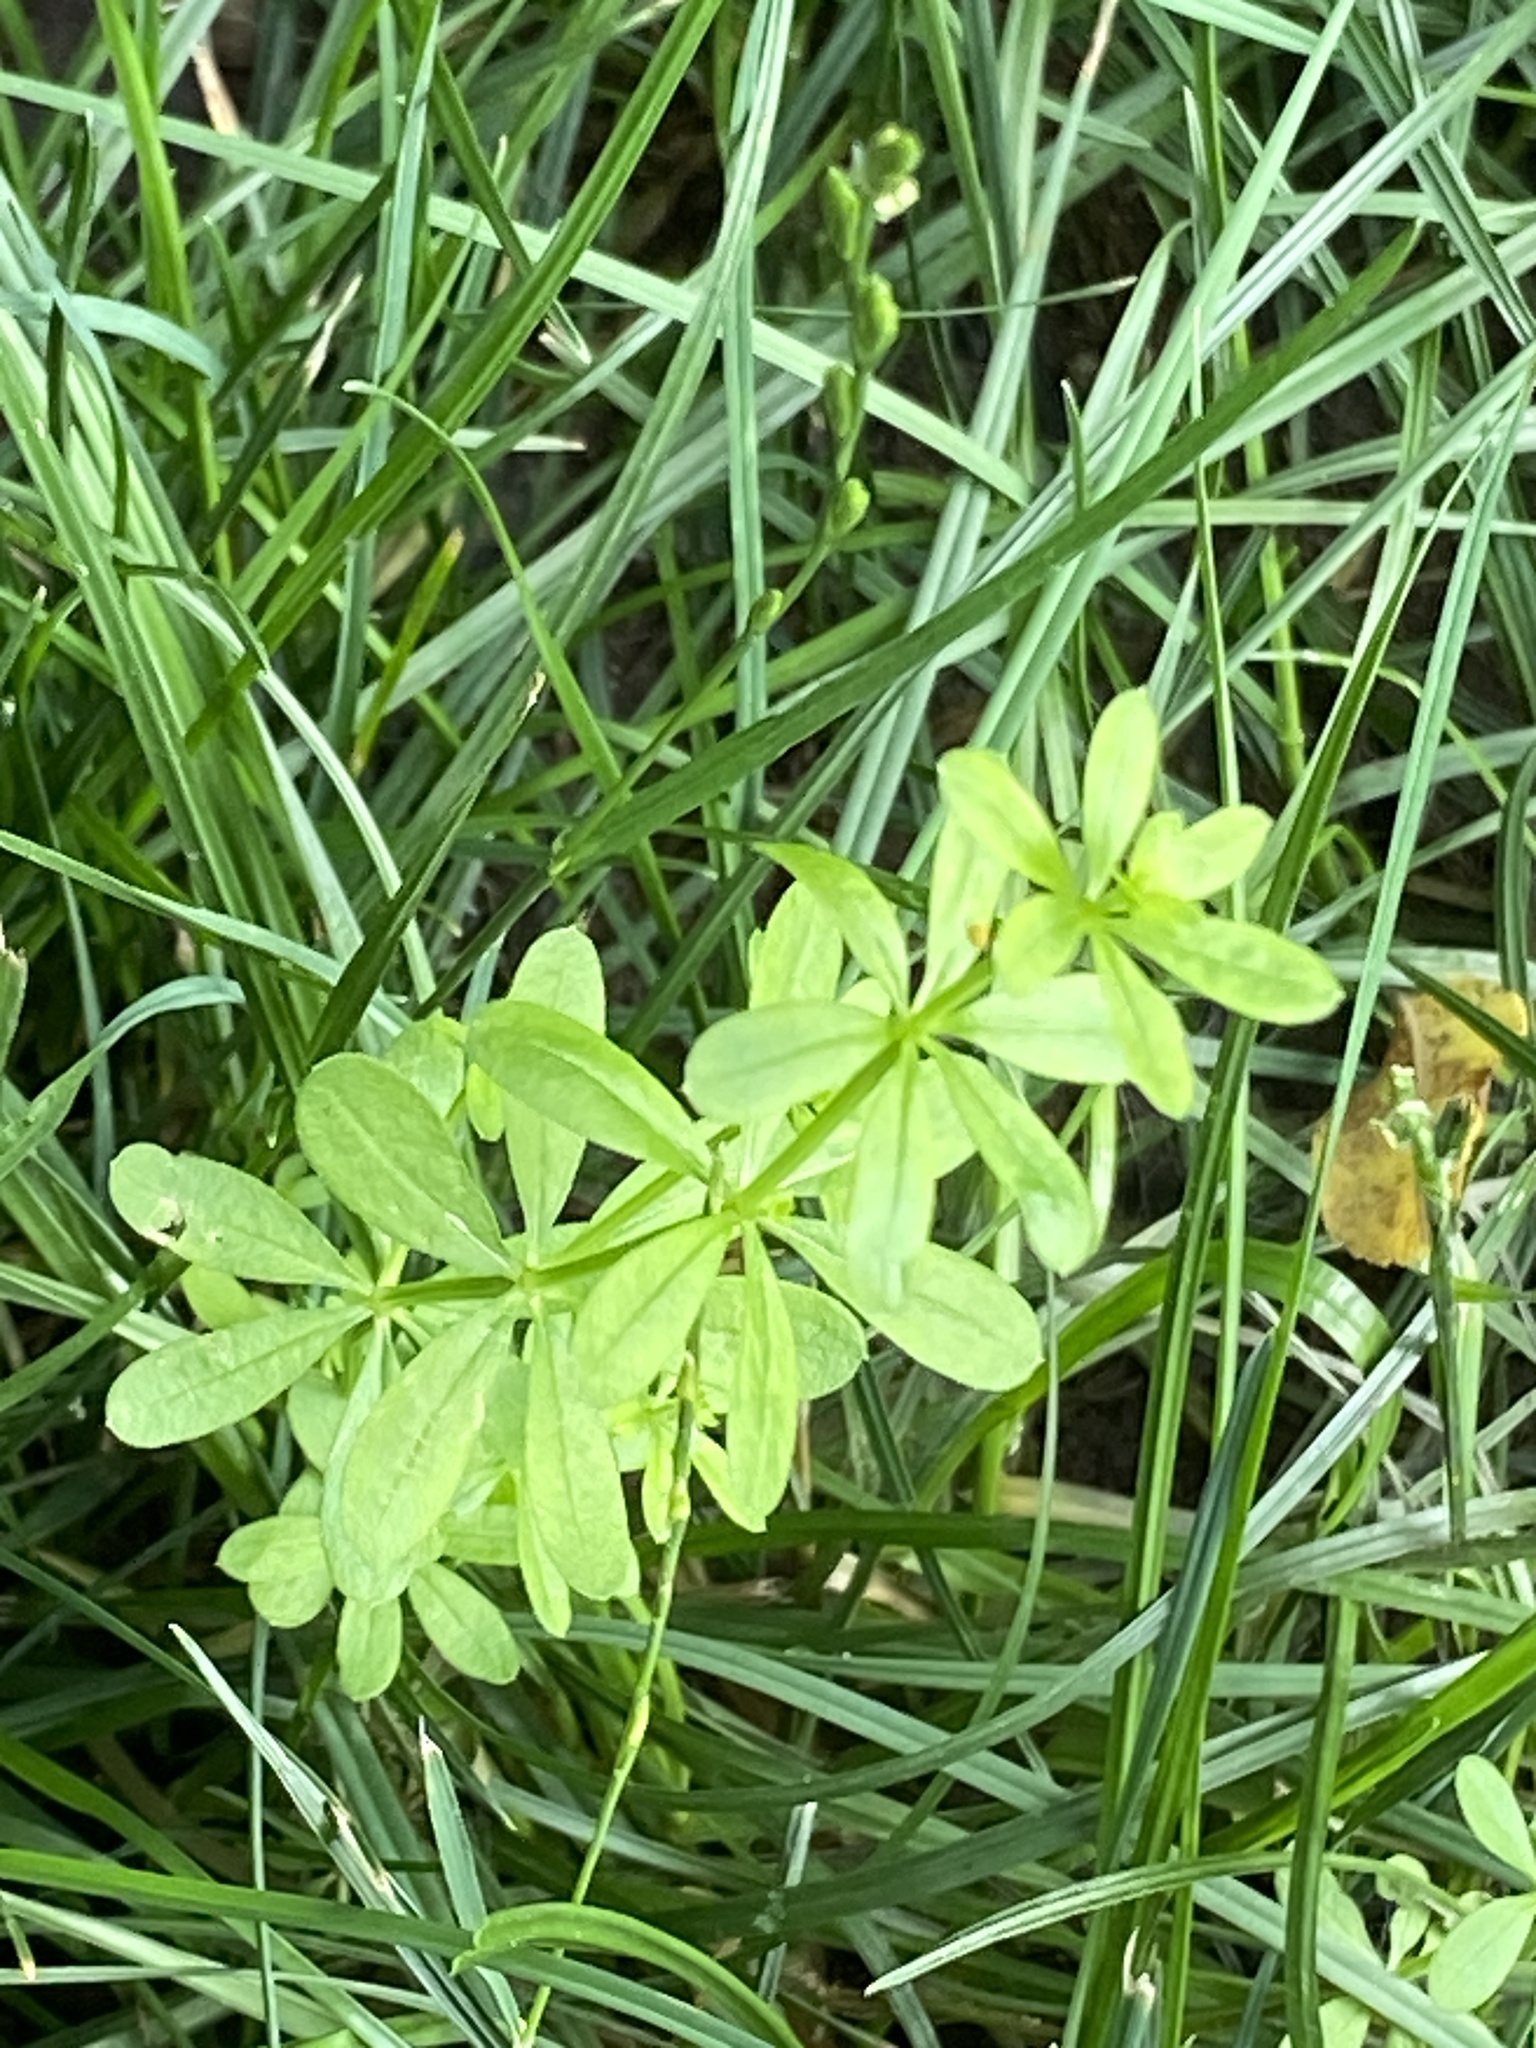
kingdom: Plantae
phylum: Tracheophyta
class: Magnoliopsida
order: Gentianales
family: Rubiaceae
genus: Galium
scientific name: Galium triflorum
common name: Fragrant bedstraw
